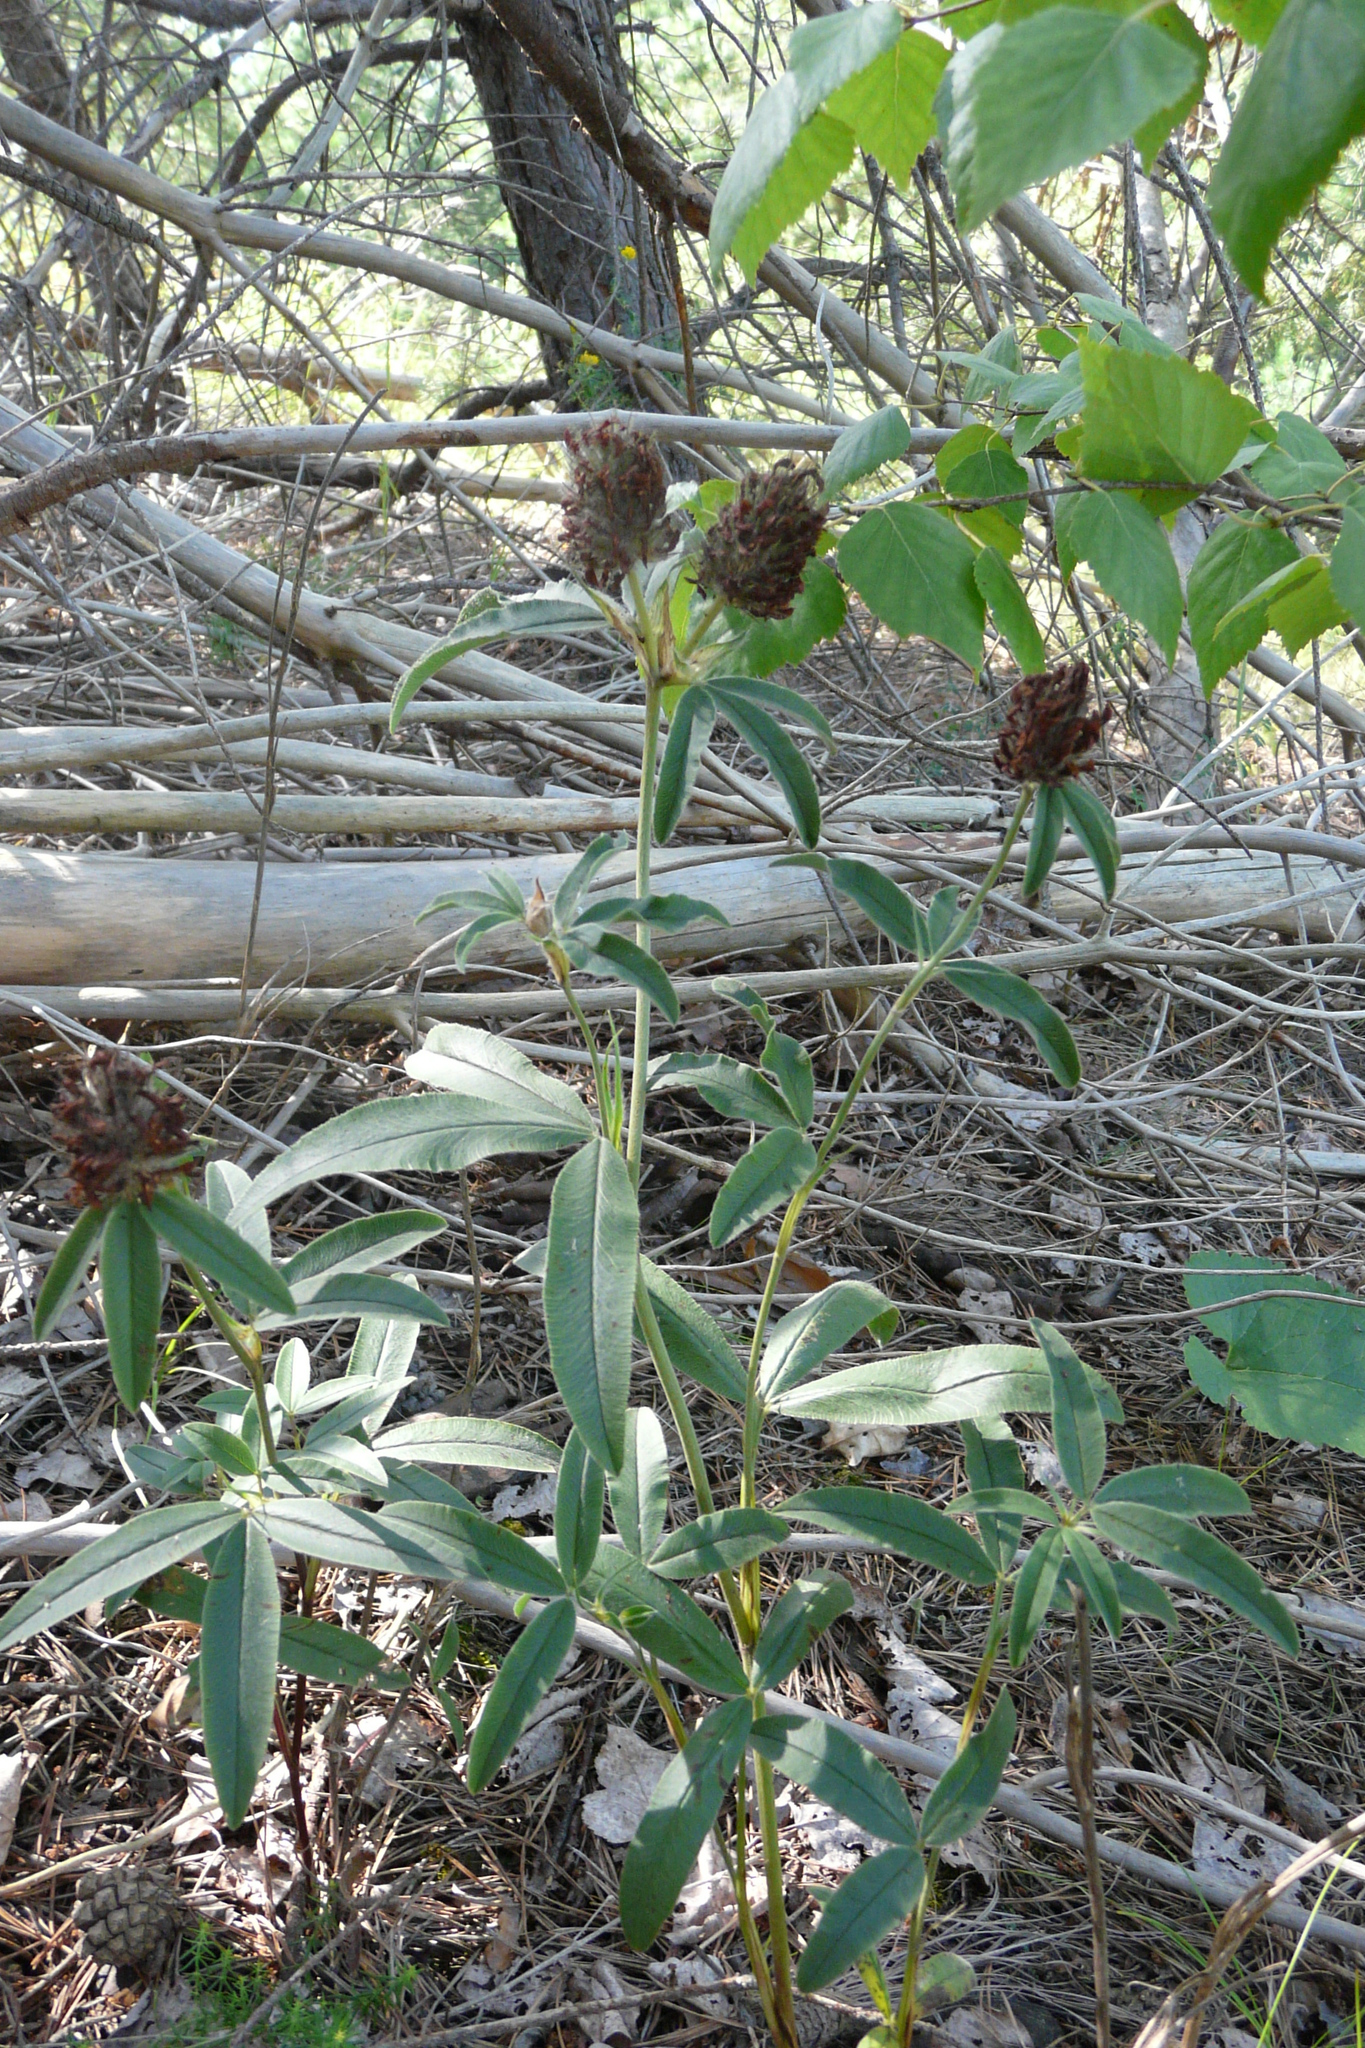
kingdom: Plantae
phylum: Tracheophyta
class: Magnoliopsida
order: Fabales
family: Fabaceae
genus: Trifolium
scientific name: Trifolium alpestre
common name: Owl-head clover
